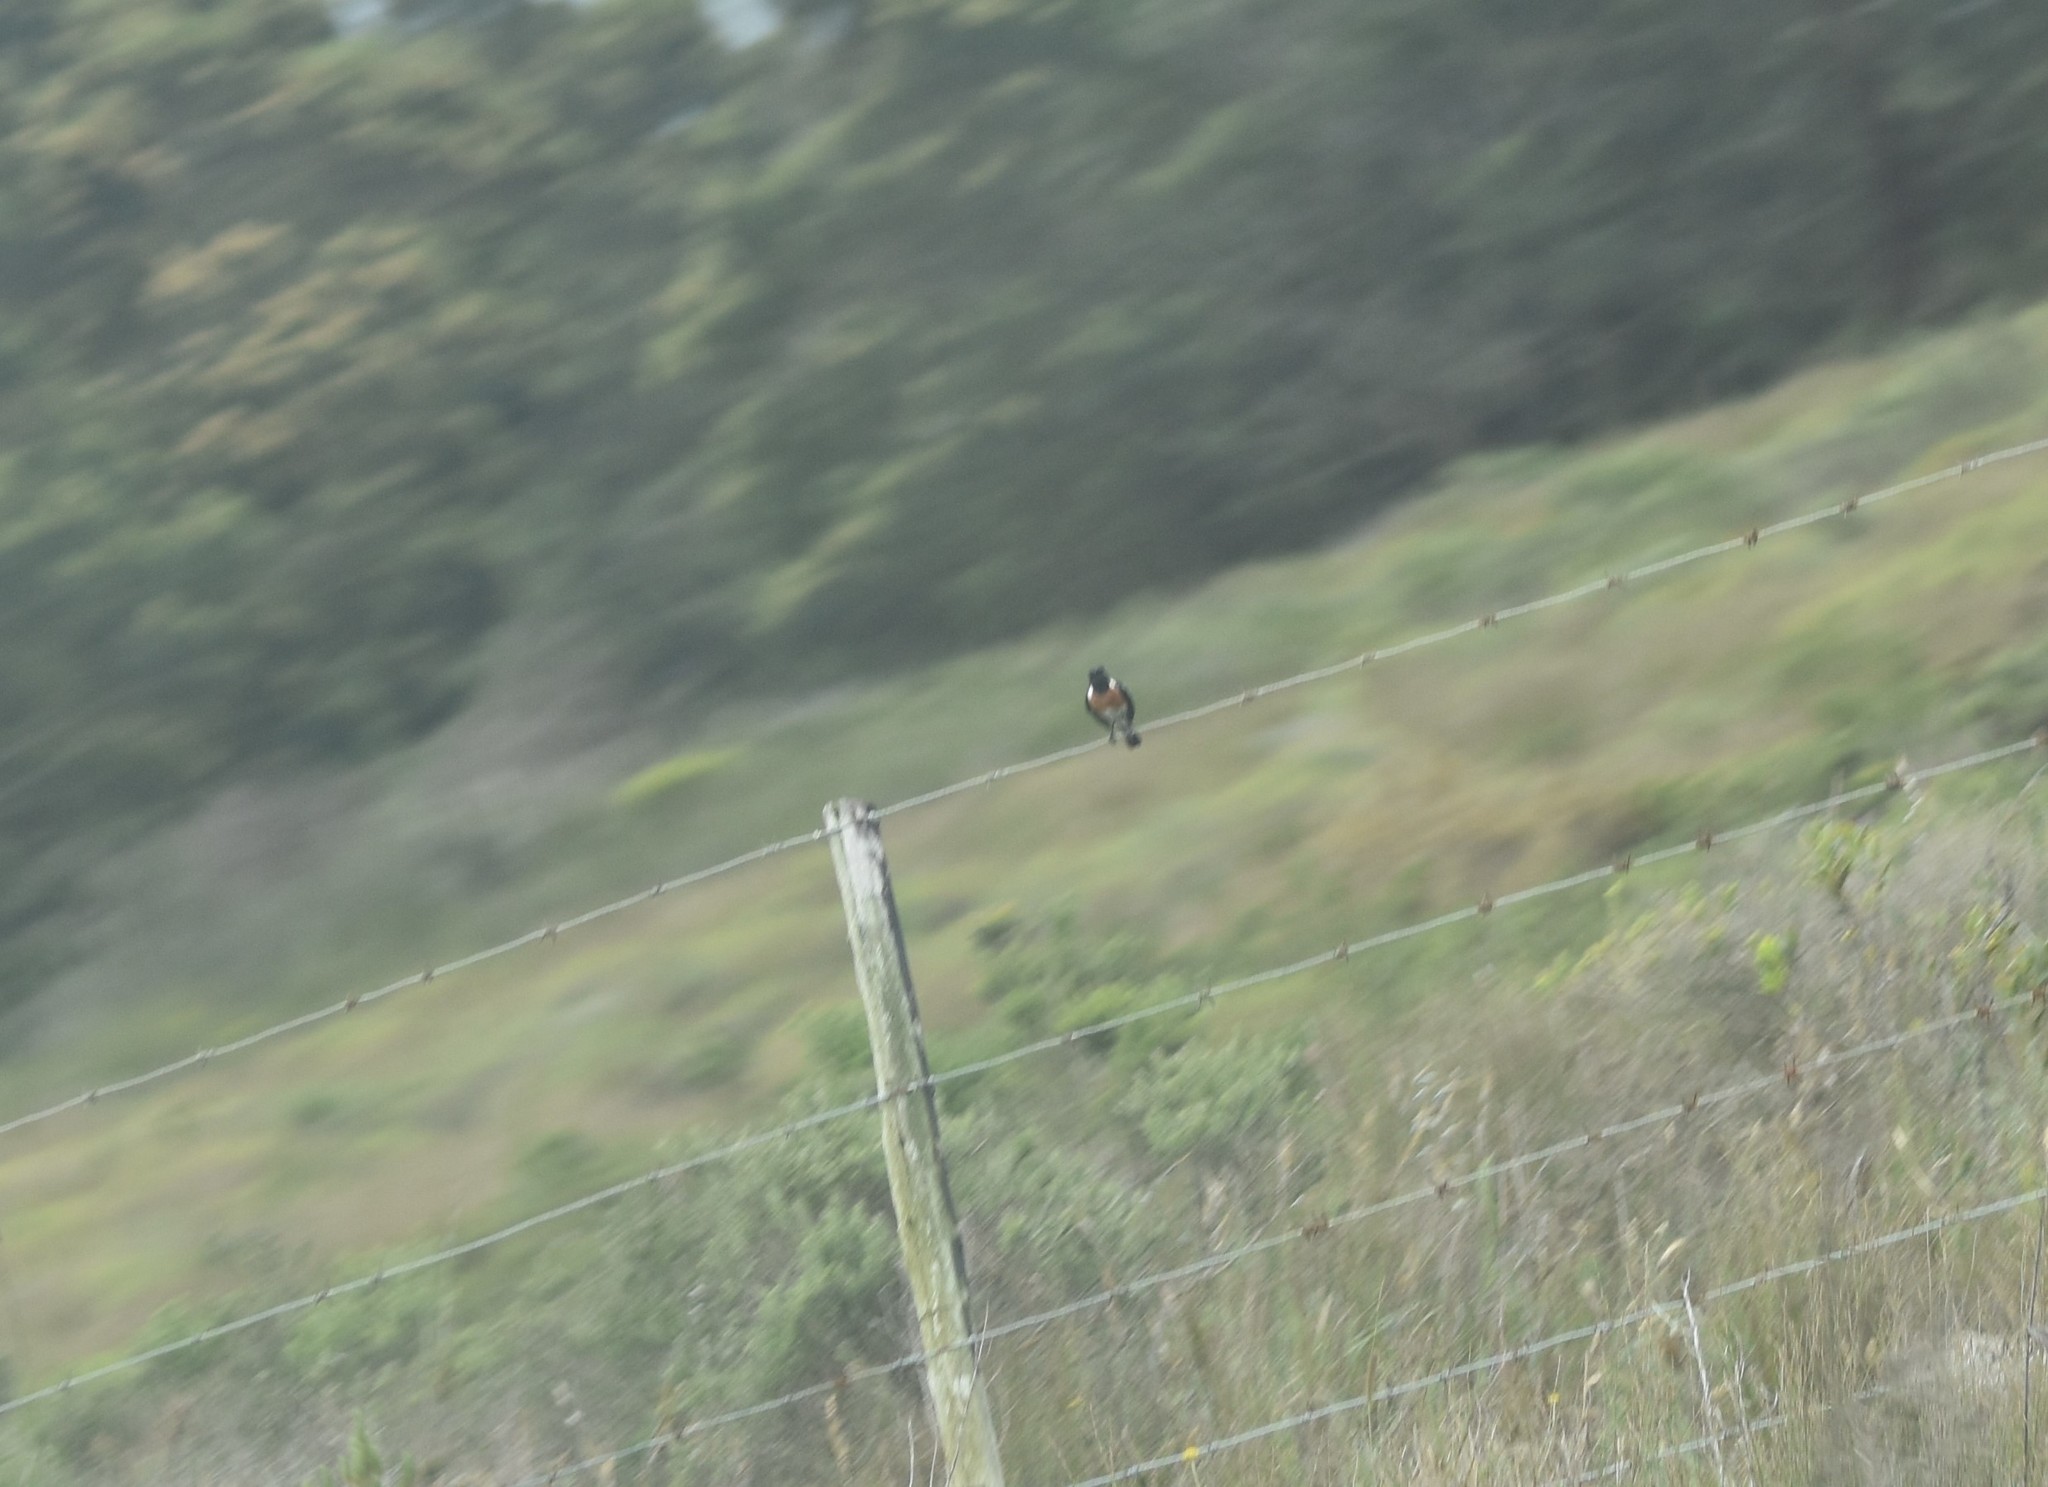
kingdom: Animalia
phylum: Chordata
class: Aves
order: Passeriformes
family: Muscicapidae
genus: Saxicola
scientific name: Saxicola torquatus
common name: African stonechat
